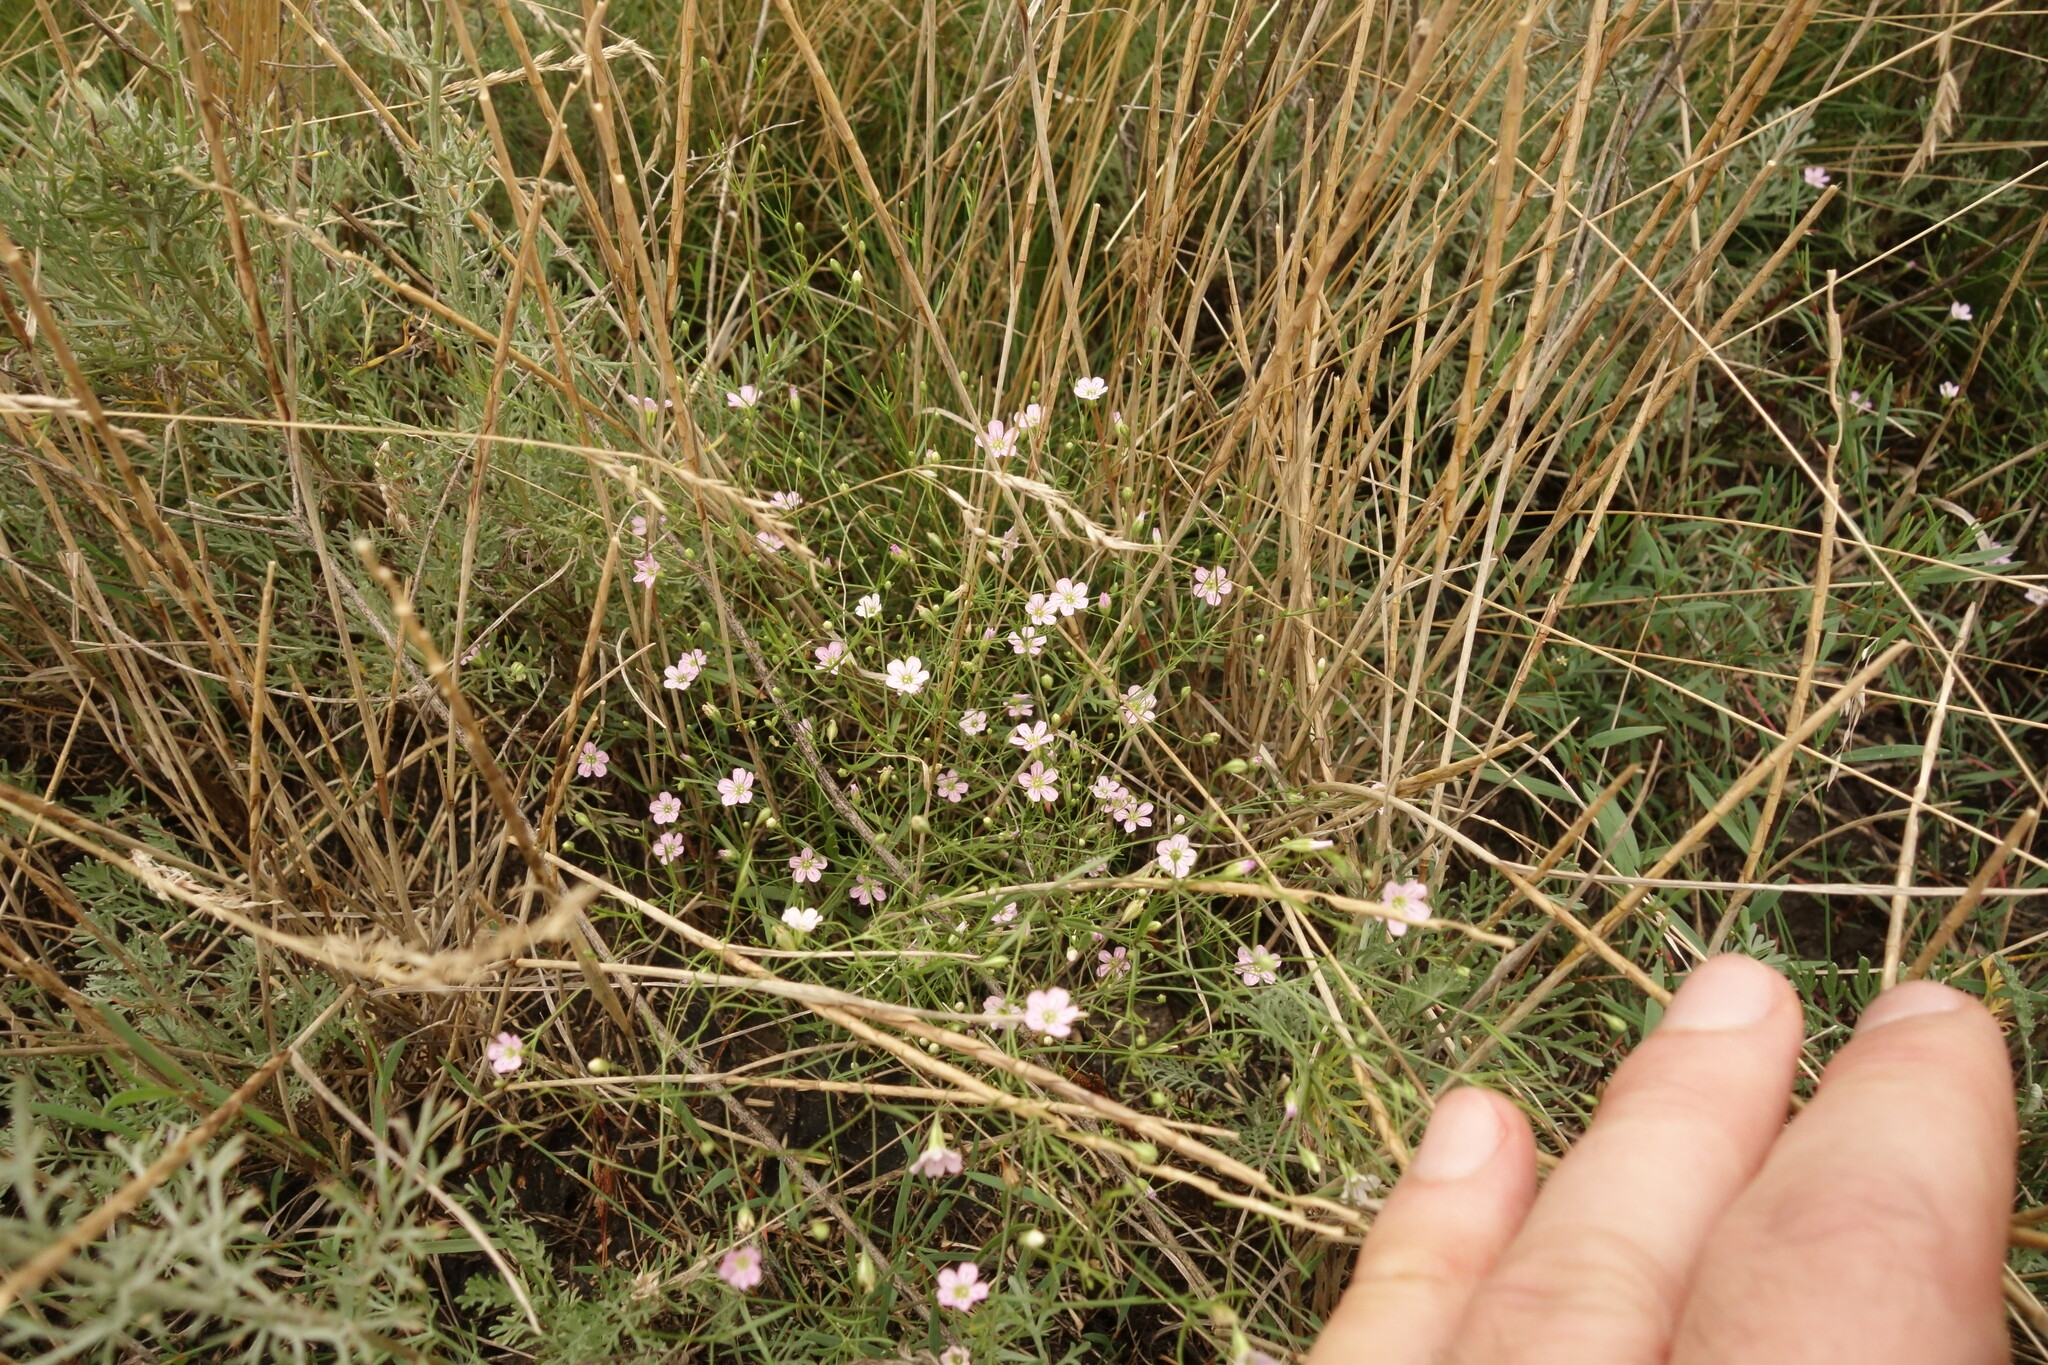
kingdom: Plantae
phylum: Tracheophyta
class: Magnoliopsida
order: Caryophyllales
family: Caryophyllaceae
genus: Psammophiliella
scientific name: Psammophiliella muralis
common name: Cushion baby's-breath
